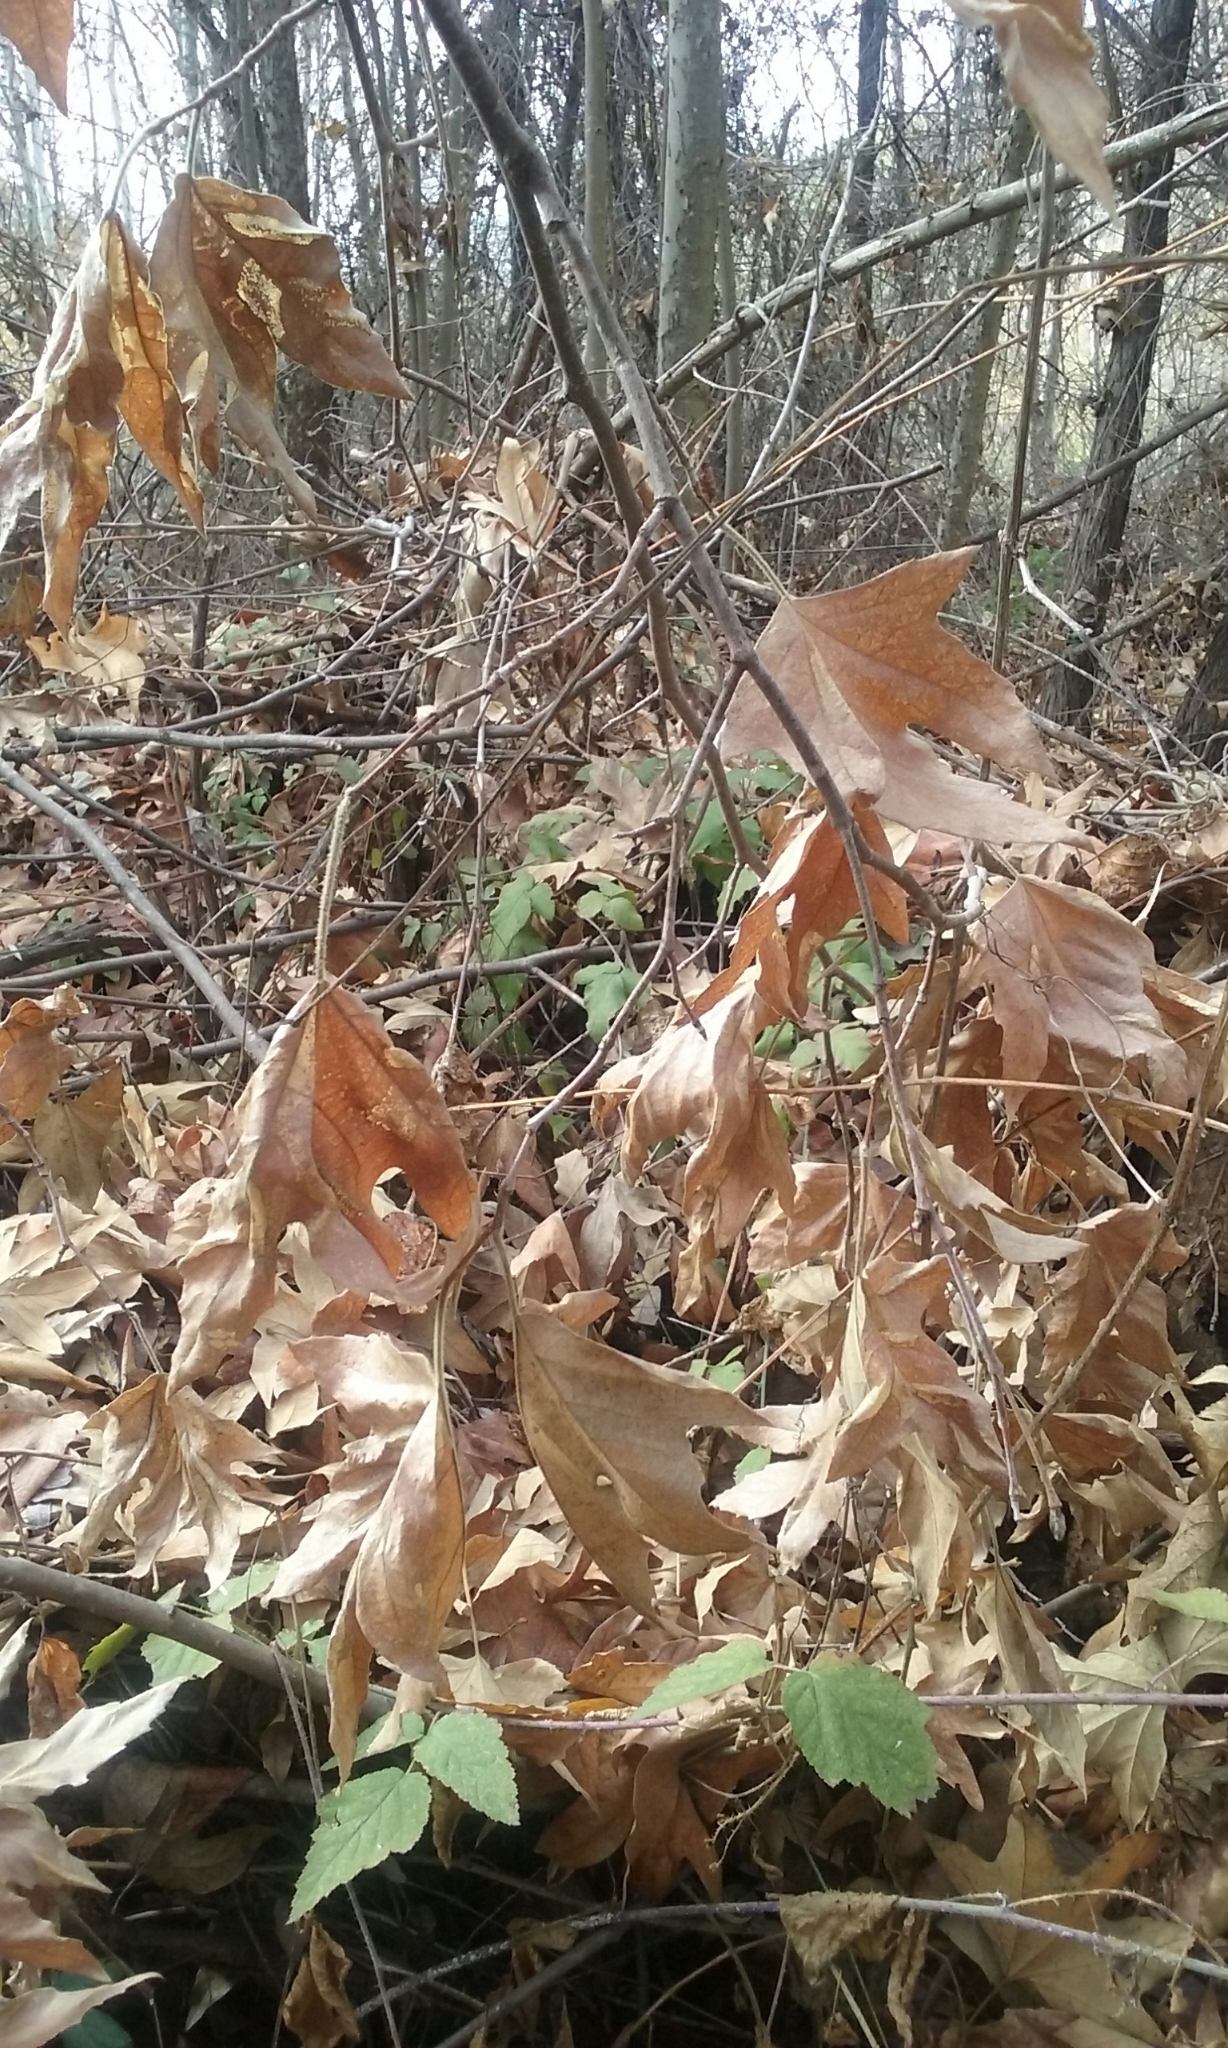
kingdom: Plantae
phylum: Tracheophyta
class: Magnoliopsida
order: Proteales
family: Platanaceae
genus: Platanus
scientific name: Platanus racemosa
